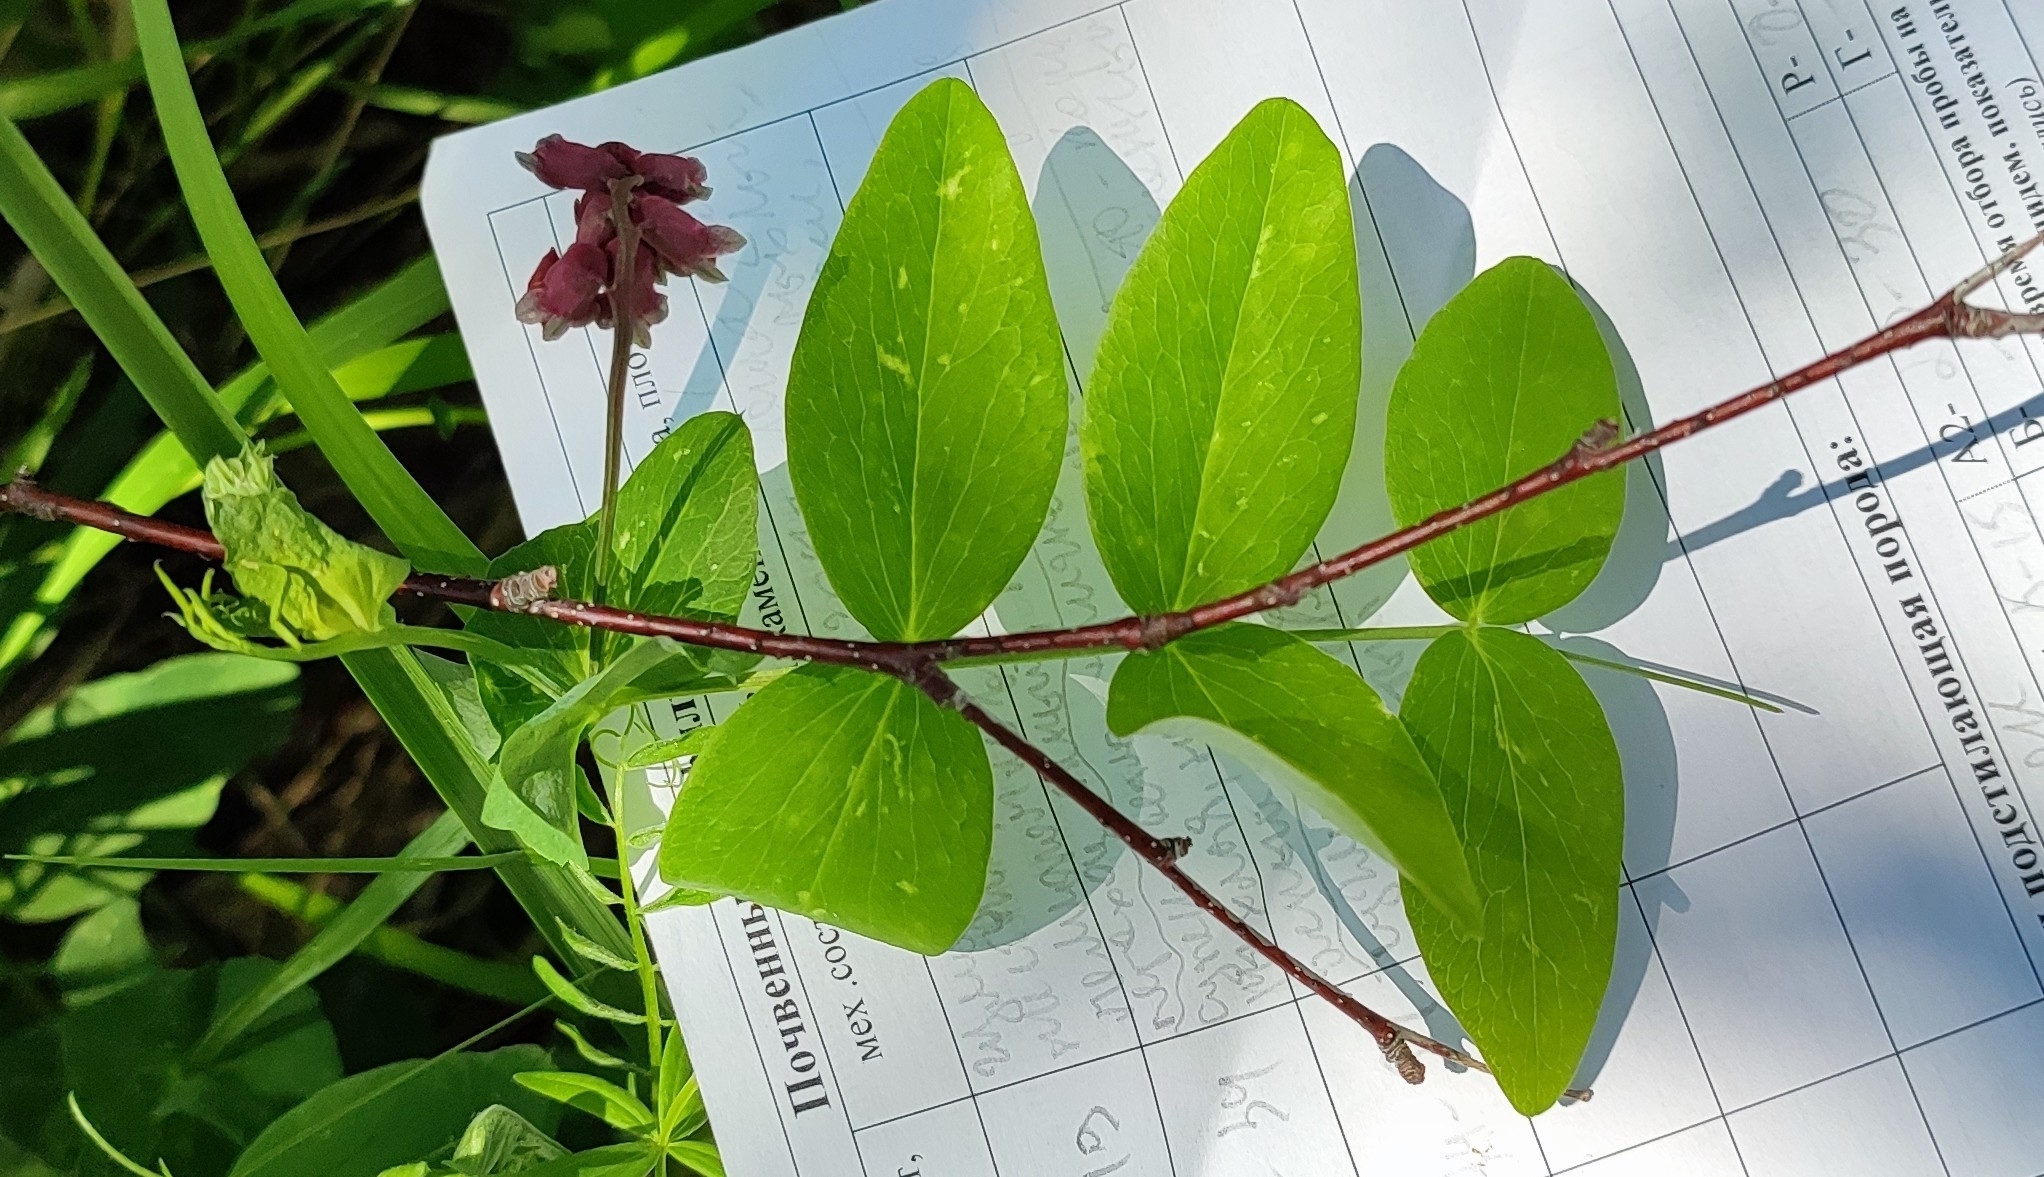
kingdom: Plantae
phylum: Tracheophyta
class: Magnoliopsida
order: Fabales
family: Fabaceae
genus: Lathyrus
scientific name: Lathyrus pisiformis
